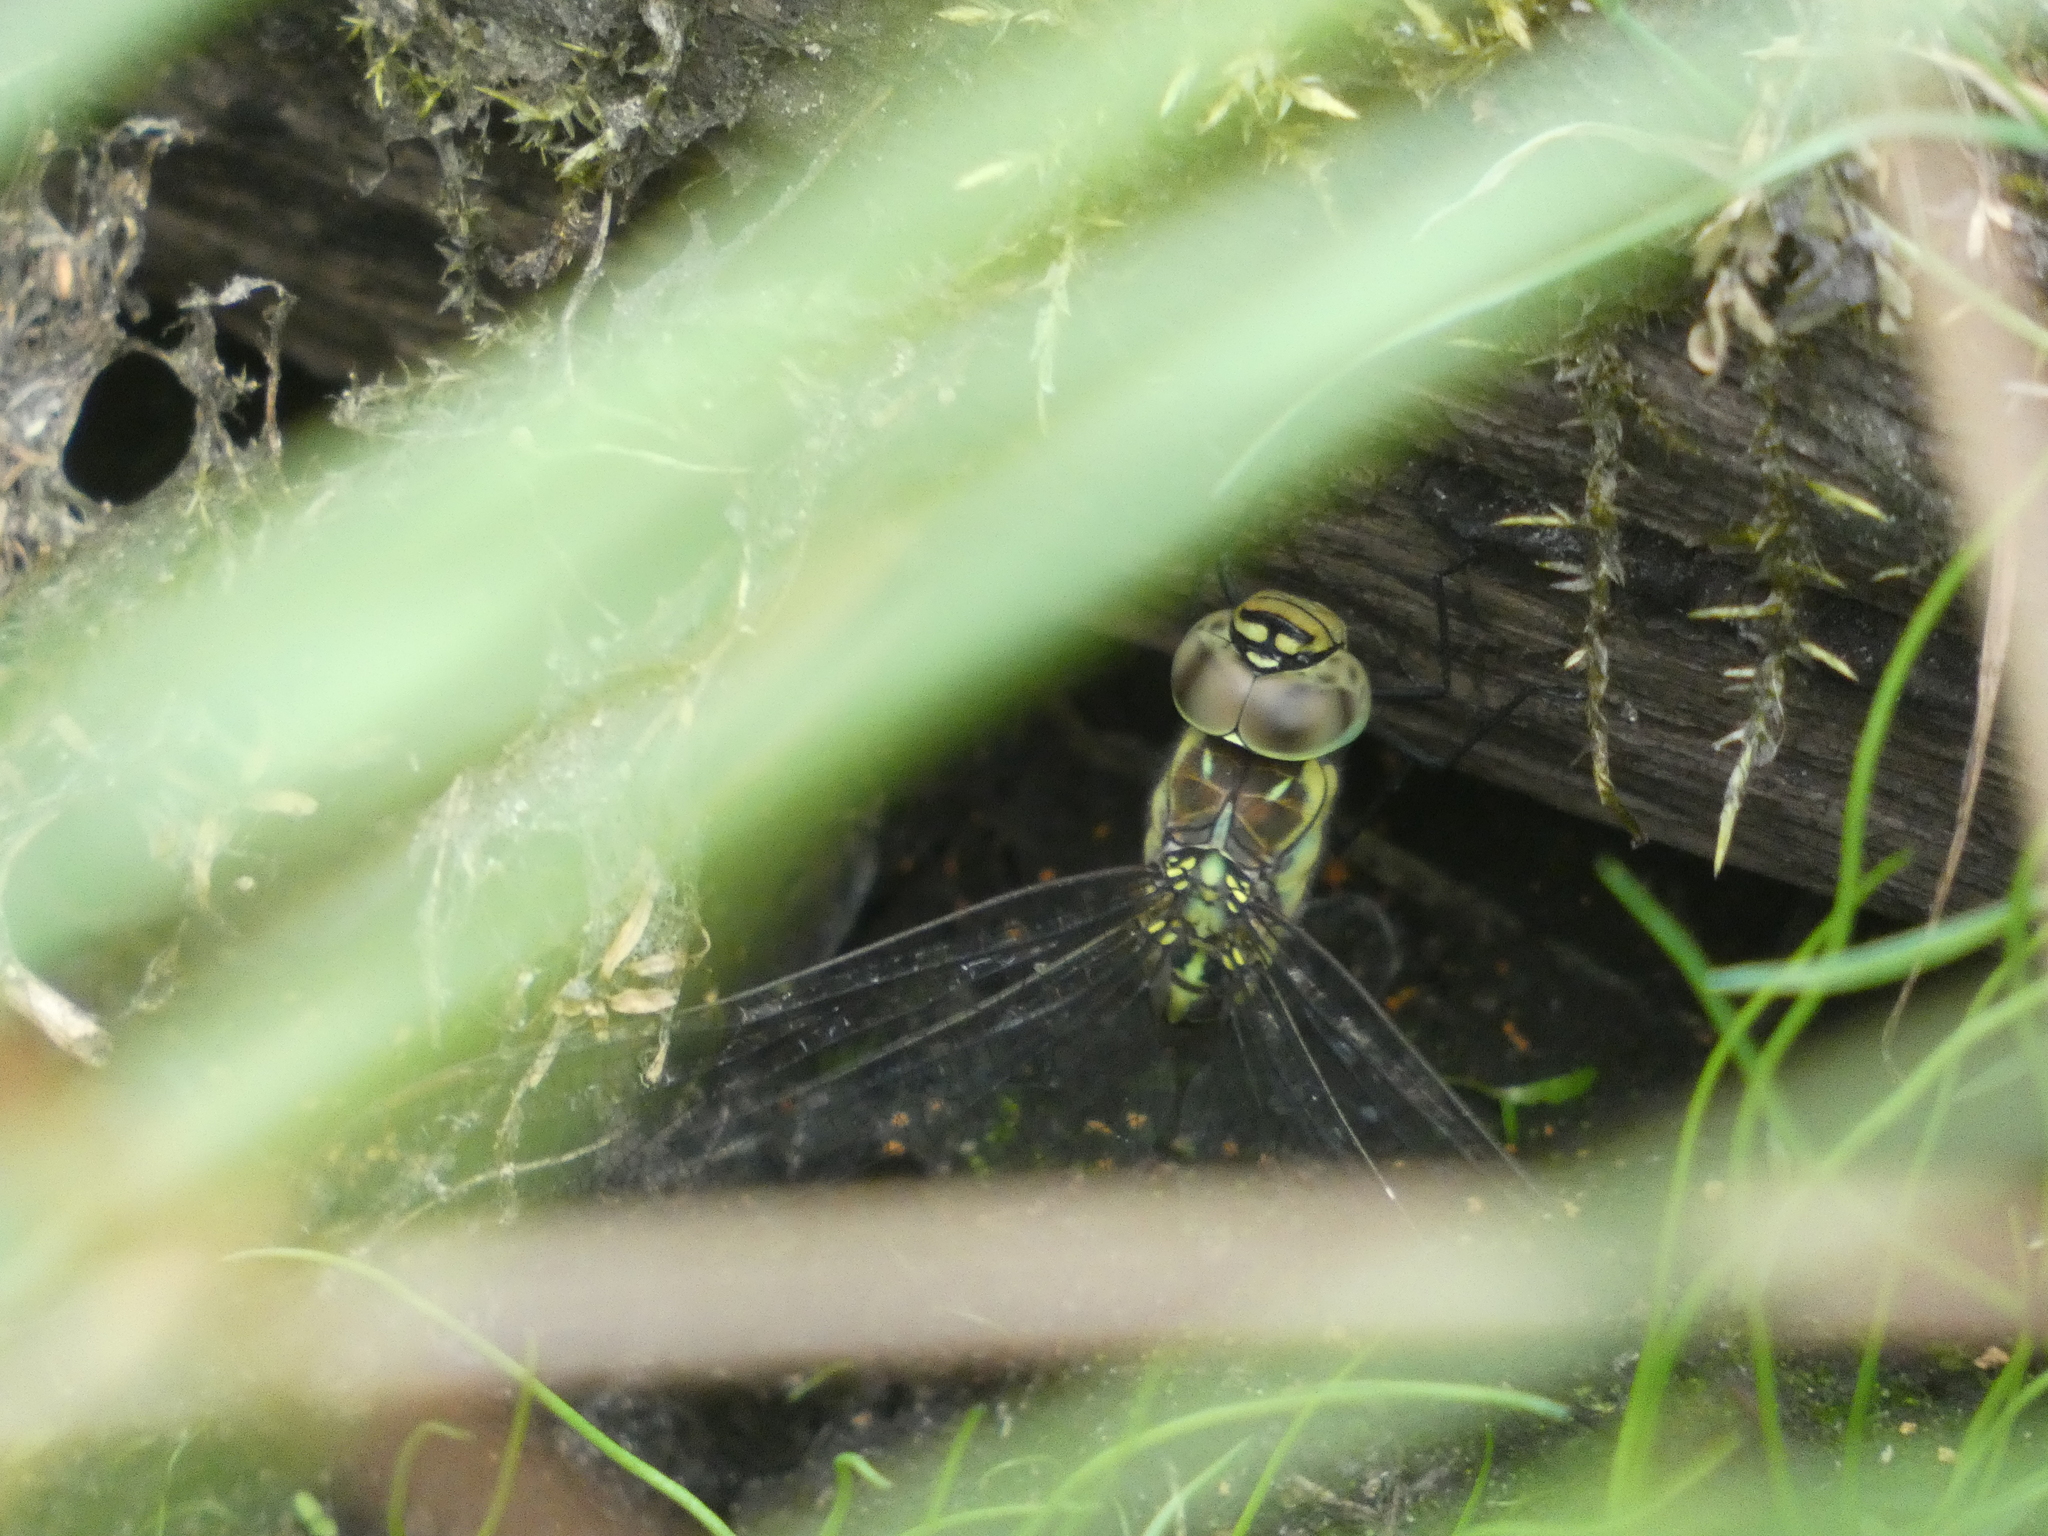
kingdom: Animalia
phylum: Arthropoda
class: Insecta
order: Odonata
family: Aeshnidae
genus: Aeshna
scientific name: Aeshna affinis
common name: Southern migrant hawker
